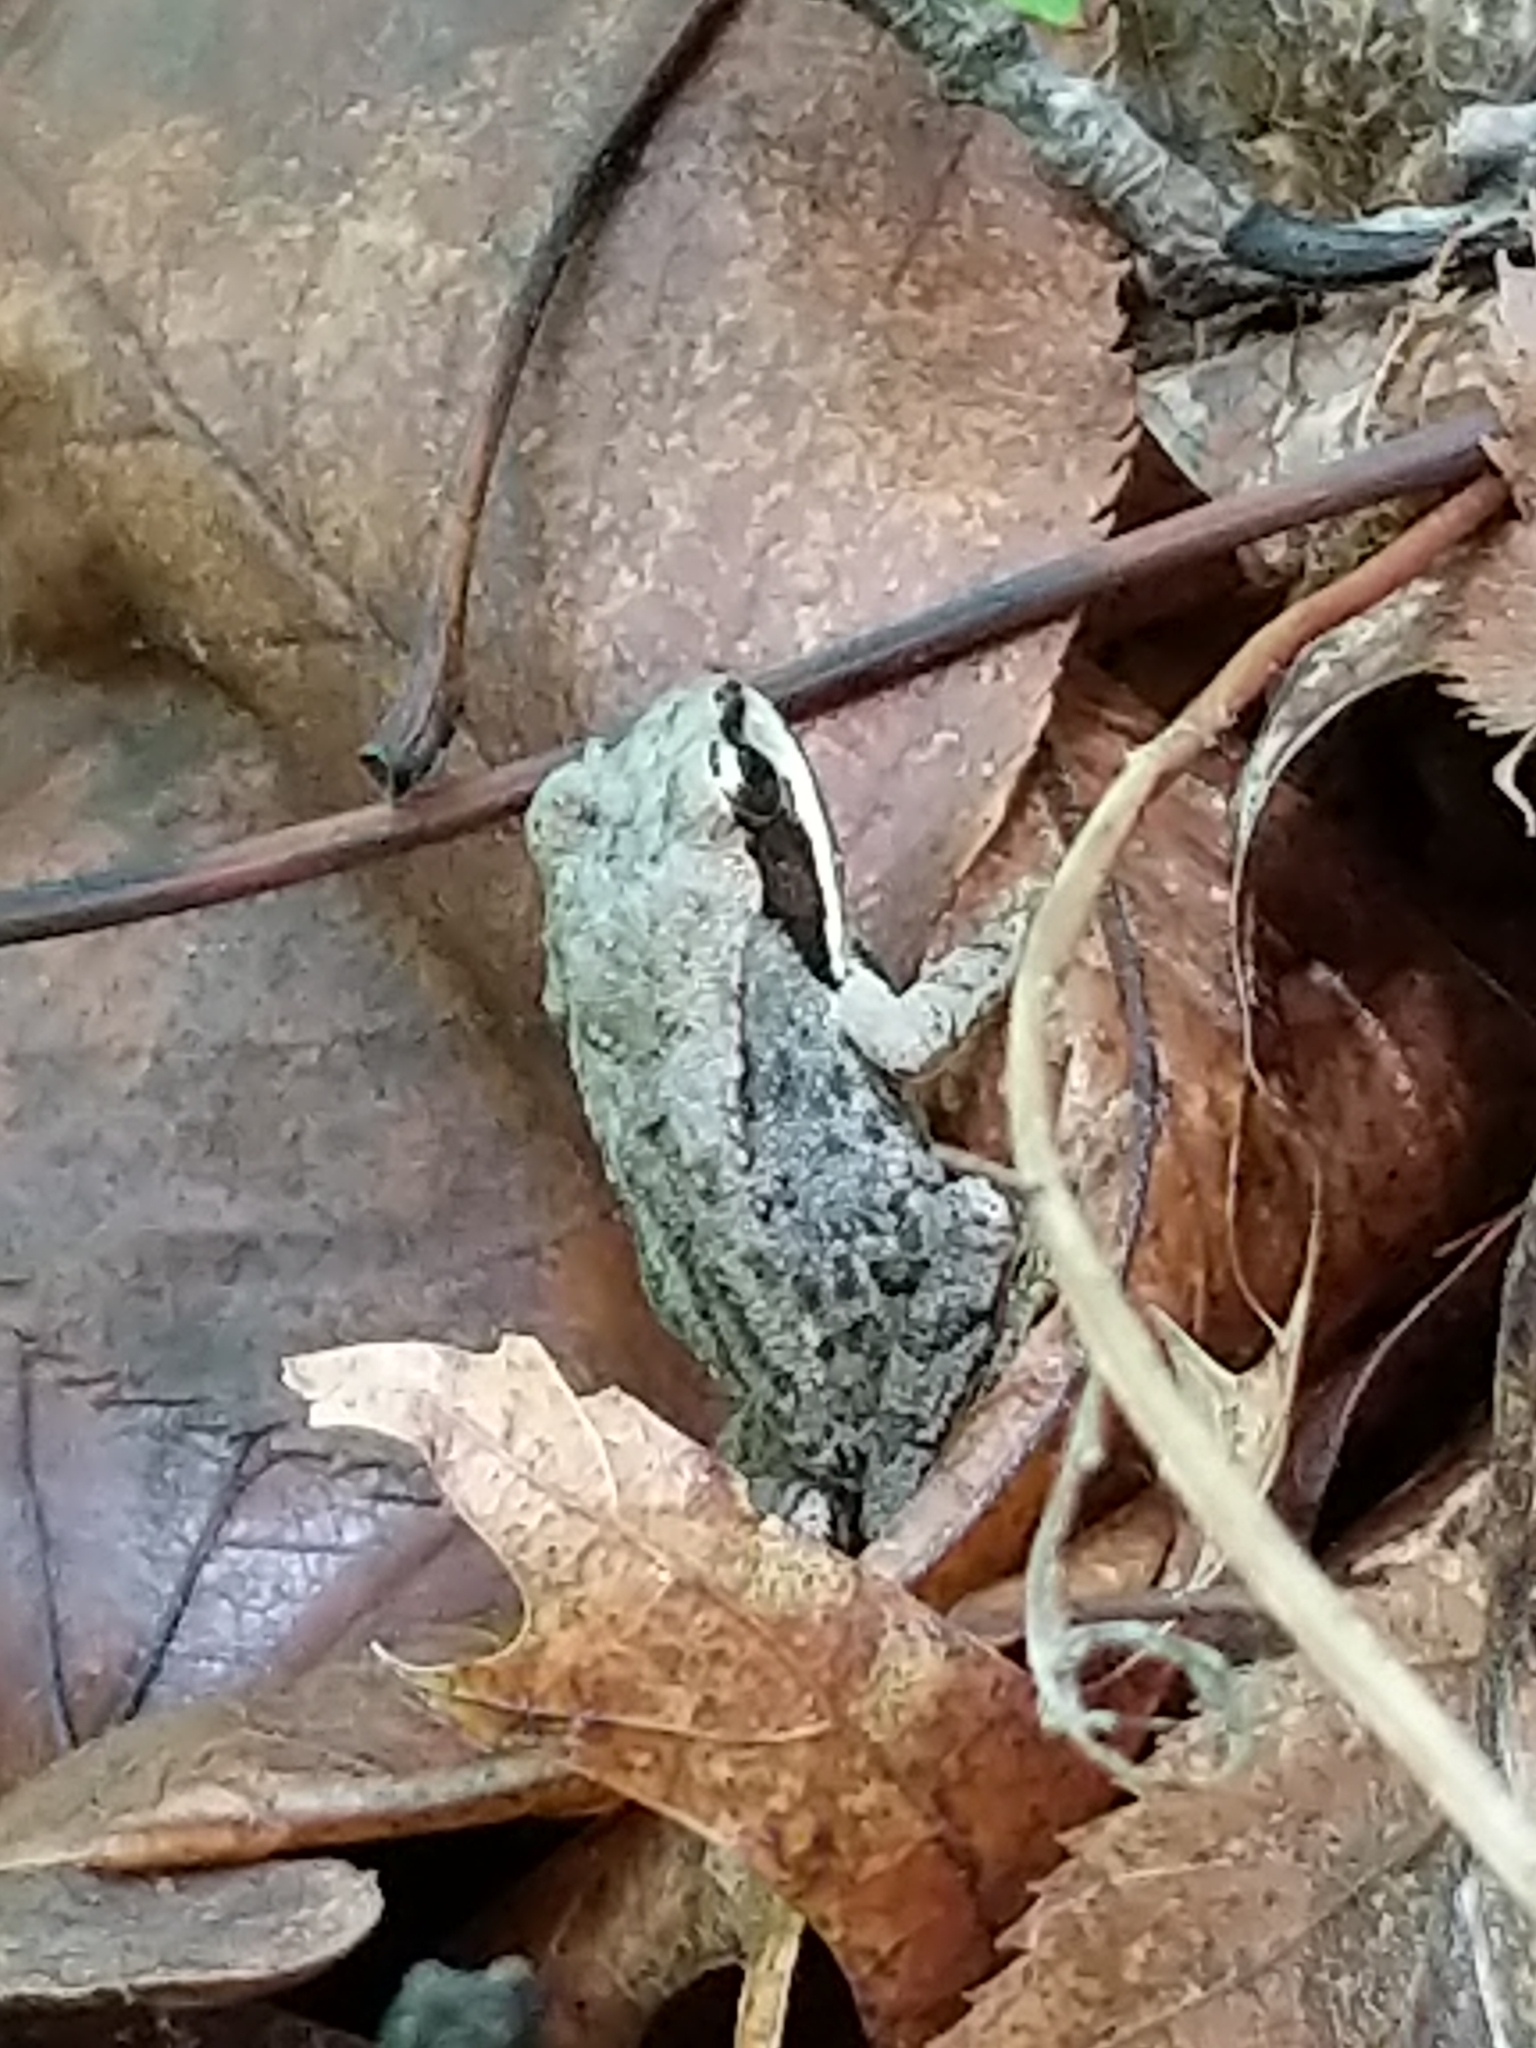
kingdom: Animalia
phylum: Chordata
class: Amphibia
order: Anura
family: Ranidae
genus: Lithobates
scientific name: Lithobates sylvaticus
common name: Wood frog
